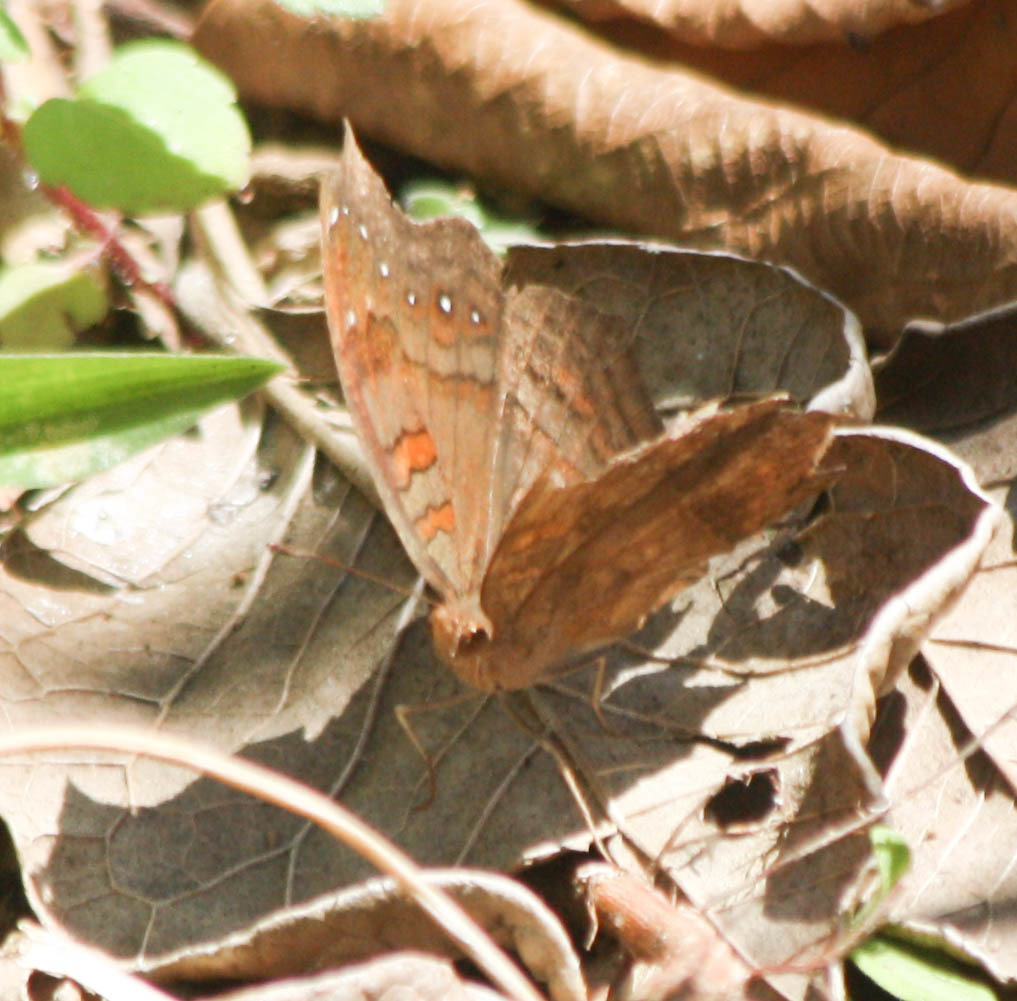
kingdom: Animalia
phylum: Arthropoda
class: Insecta
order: Lepidoptera
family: Nymphalidae
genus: Junonia
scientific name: Junonia goudotii
